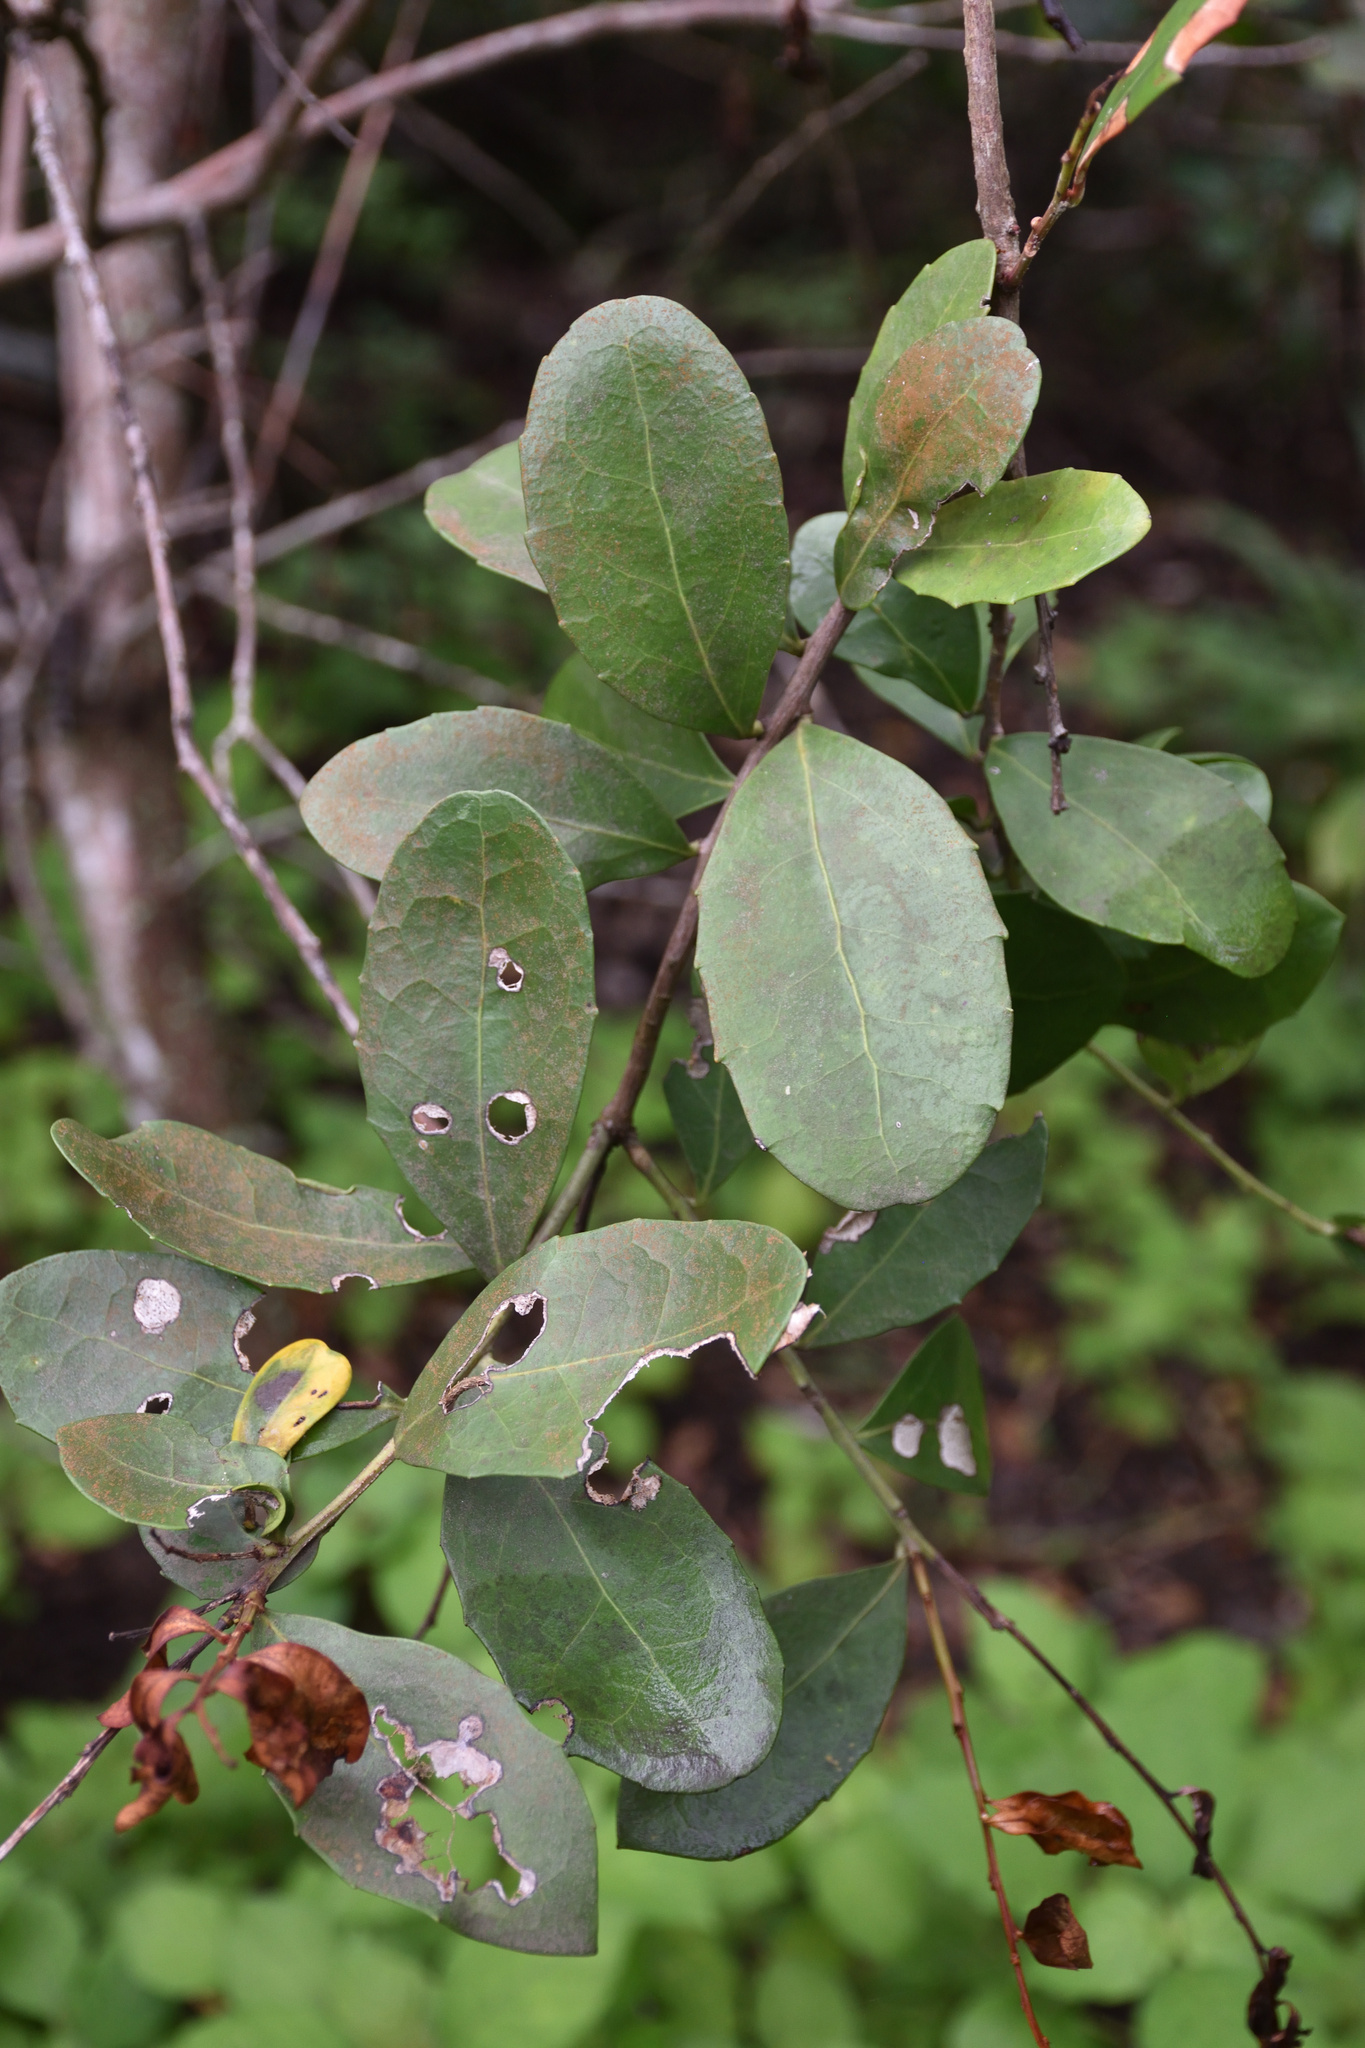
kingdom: Plantae
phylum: Tracheophyta
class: Magnoliopsida
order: Celastrales
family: Celastraceae
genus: Gymnosporia
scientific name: Gymnosporia procumbens
